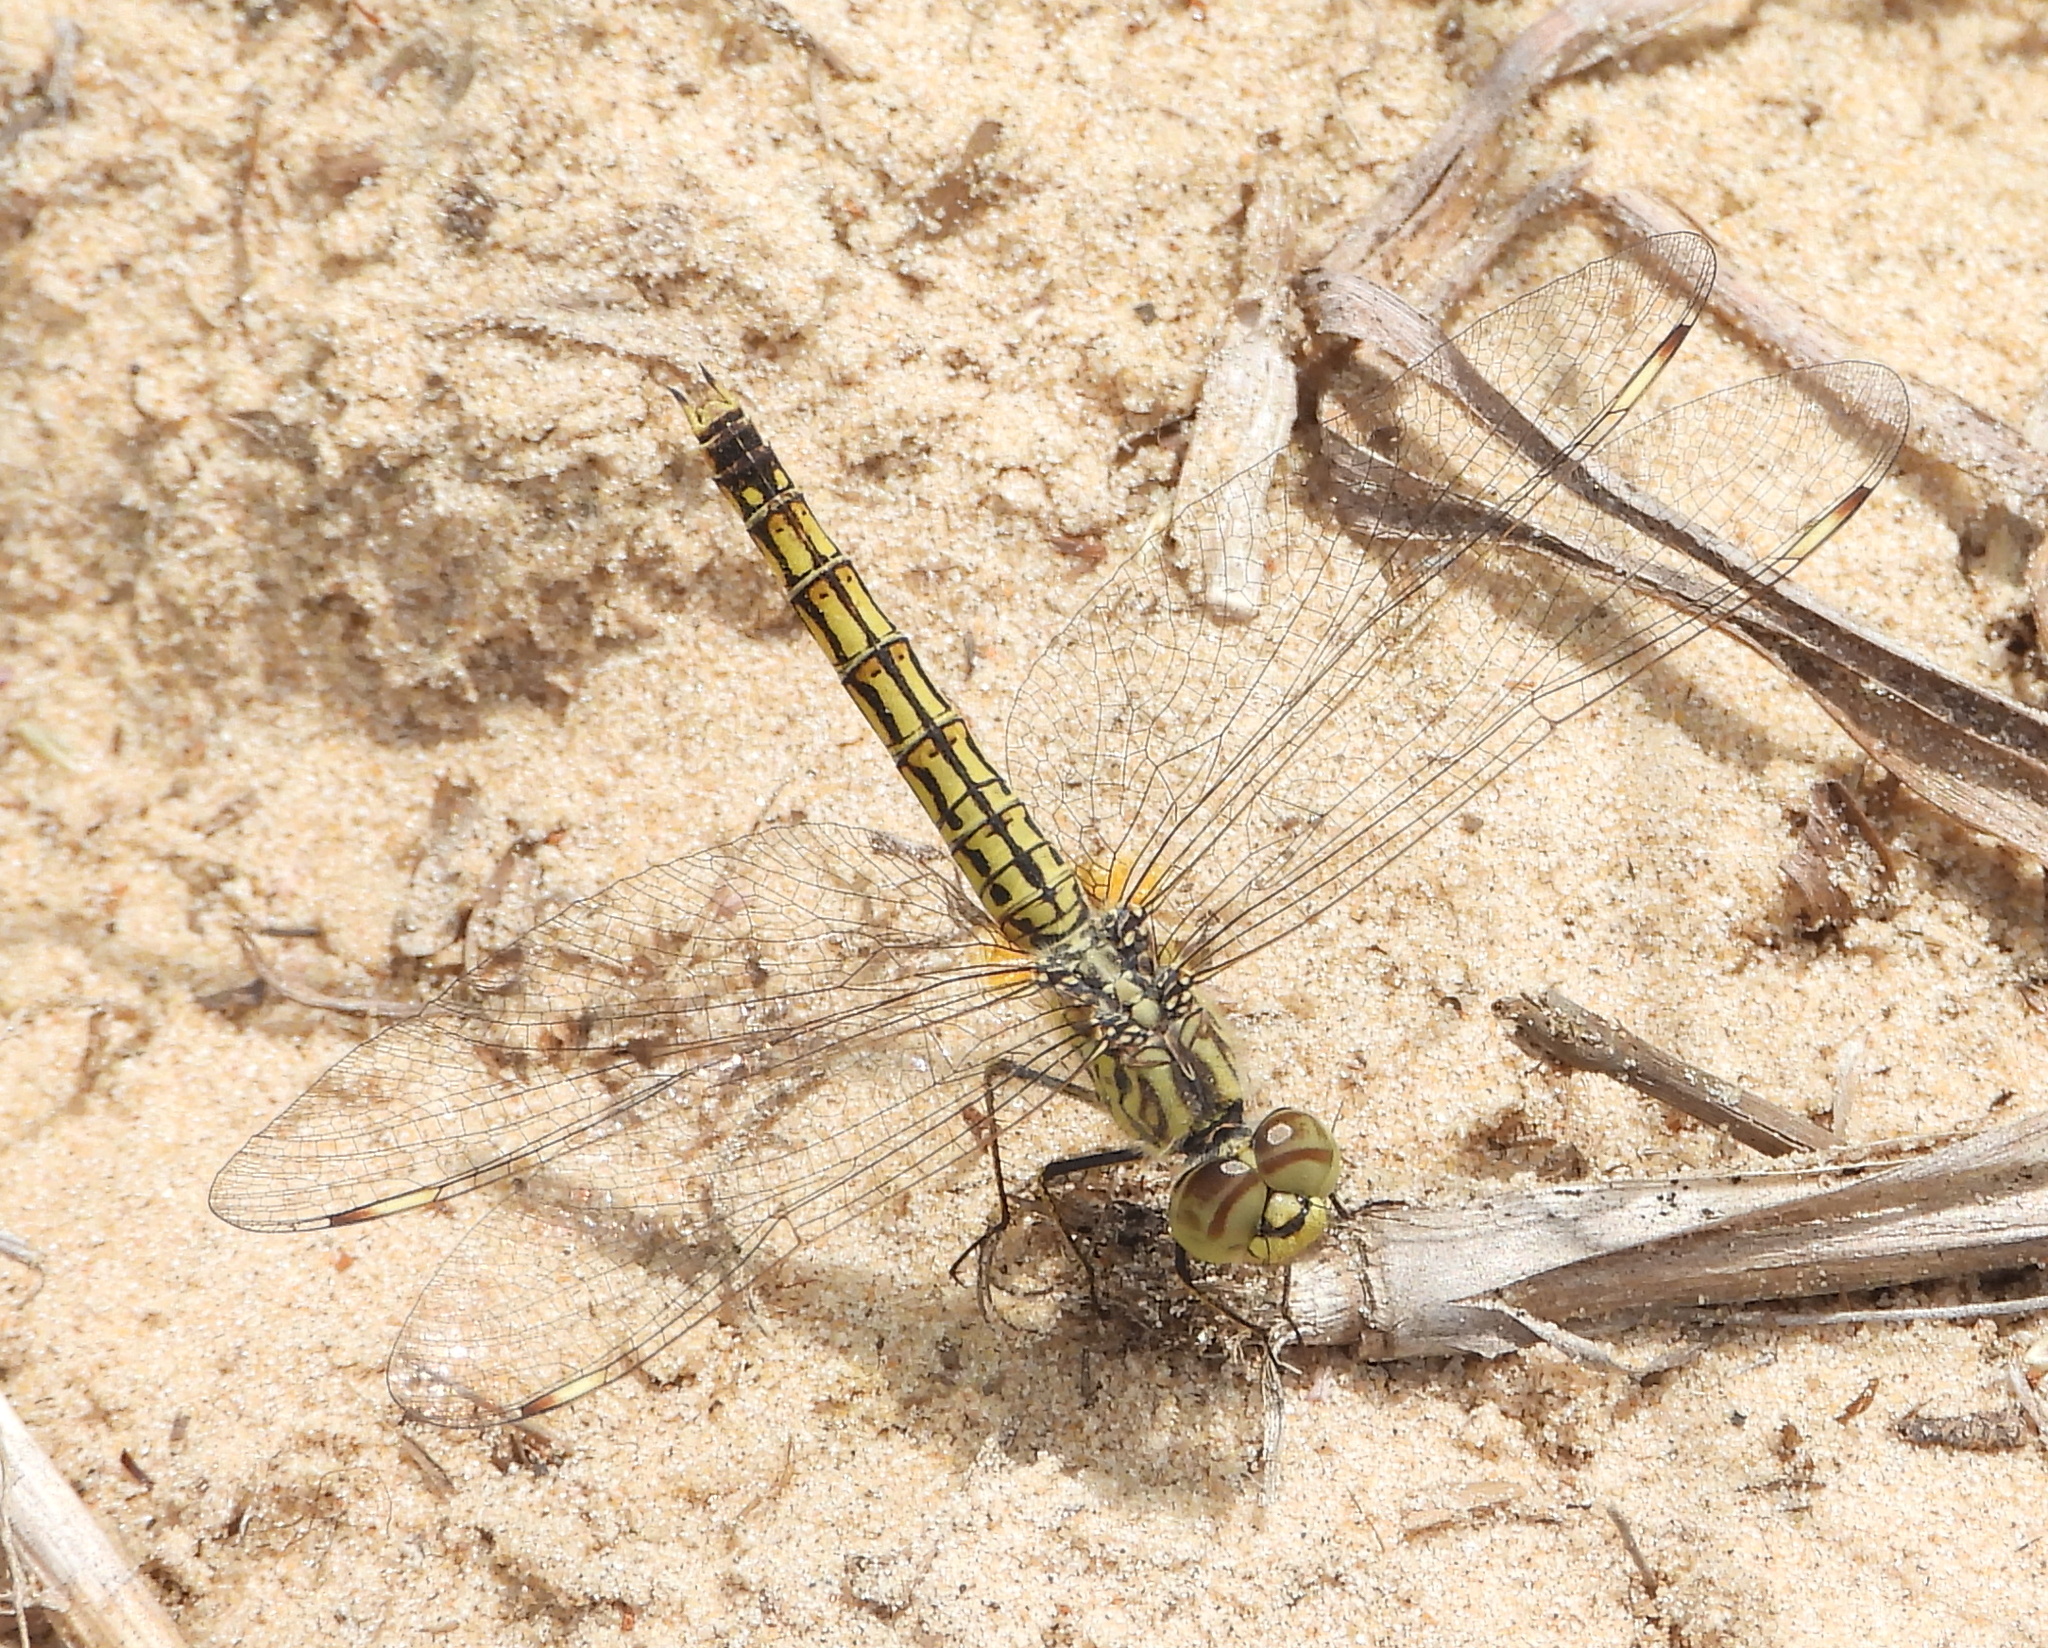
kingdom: Animalia
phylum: Arthropoda
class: Insecta
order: Odonata
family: Libellulidae
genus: Brachythemis
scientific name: Brachythemis leucosticta
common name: Banded groundling
